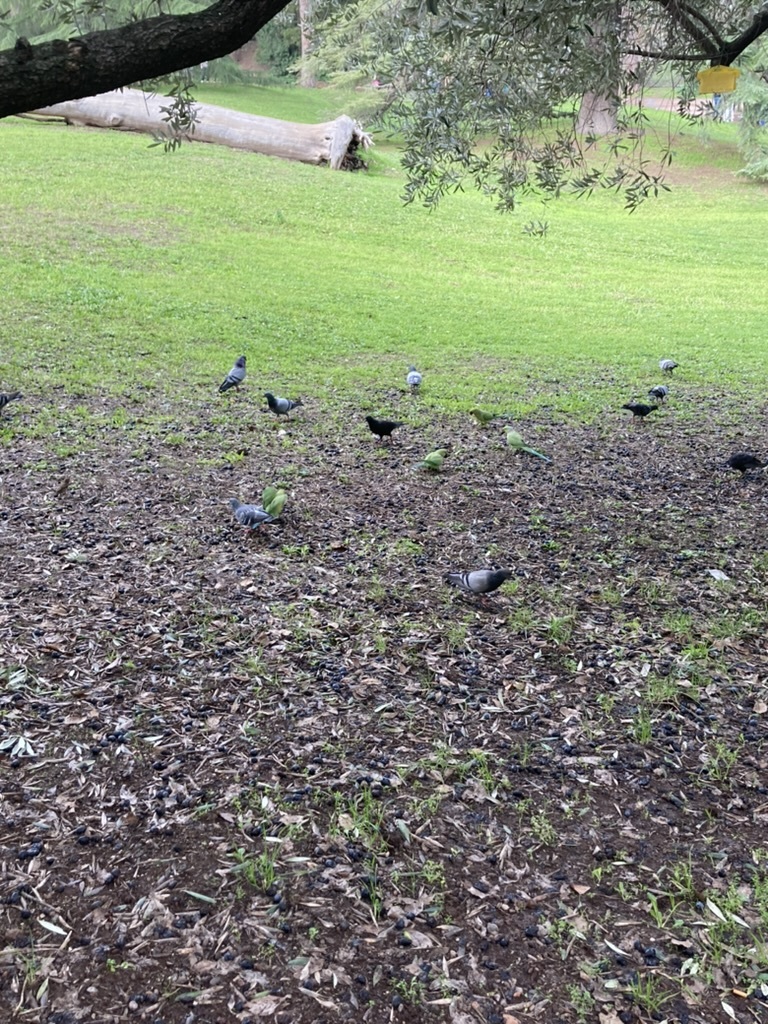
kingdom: Animalia
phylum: Chordata
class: Aves
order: Psittaciformes
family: Psittacidae
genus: Myiopsitta
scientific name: Myiopsitta monachus
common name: Monk parakeet
